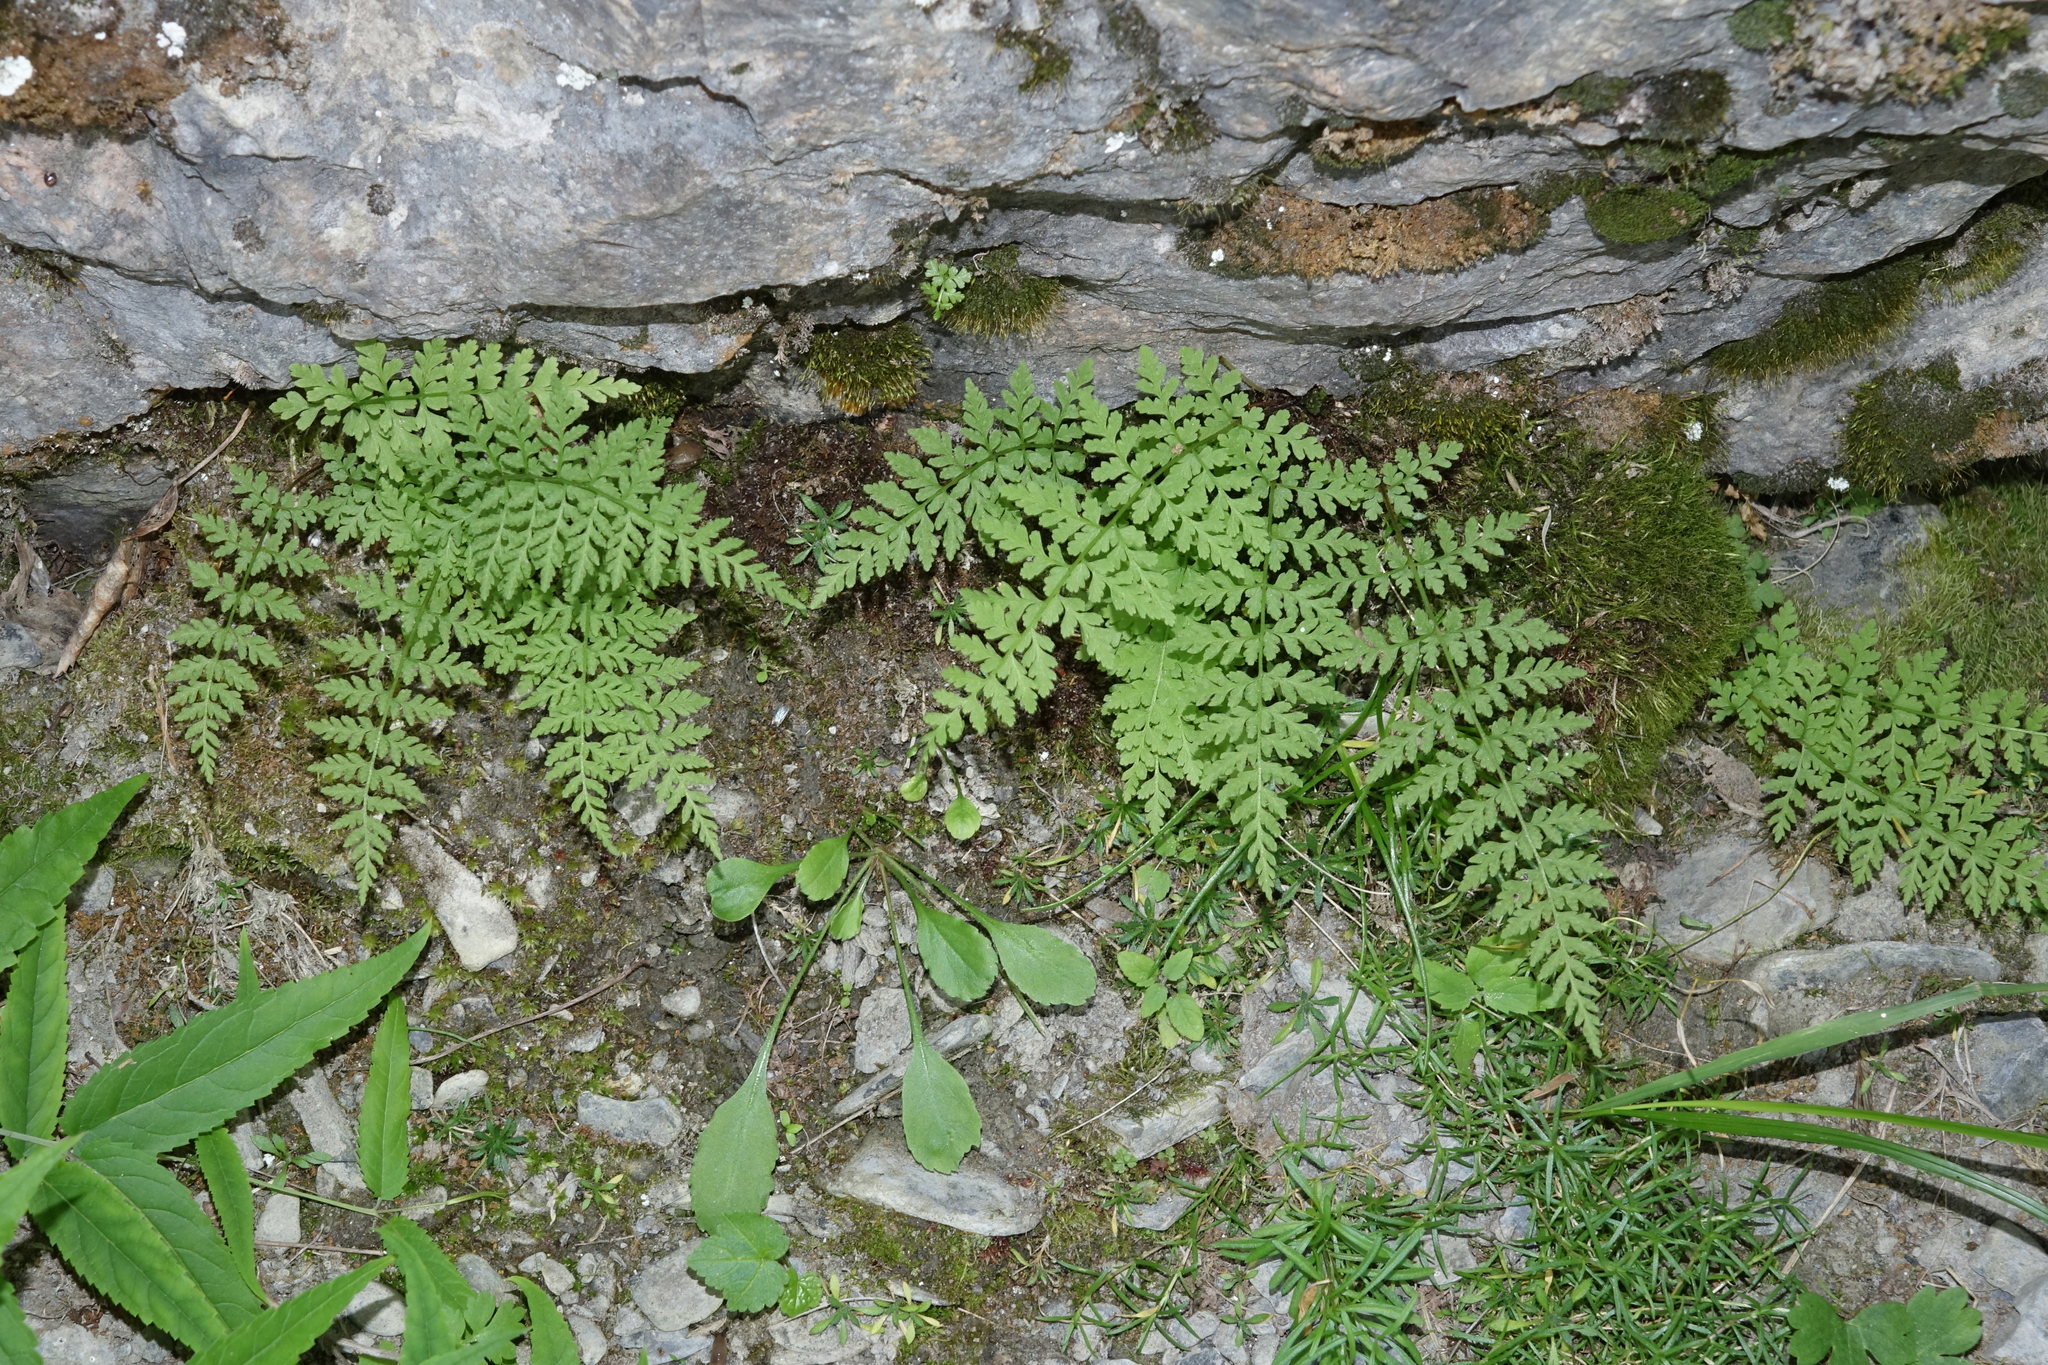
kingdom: Plantae
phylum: Tracheophyta
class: Polypodiopsida
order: Polypodiales
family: Cystopteridaceae
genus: Cystopteris
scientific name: Cystopteris fragilis
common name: Brittle bladder fern
